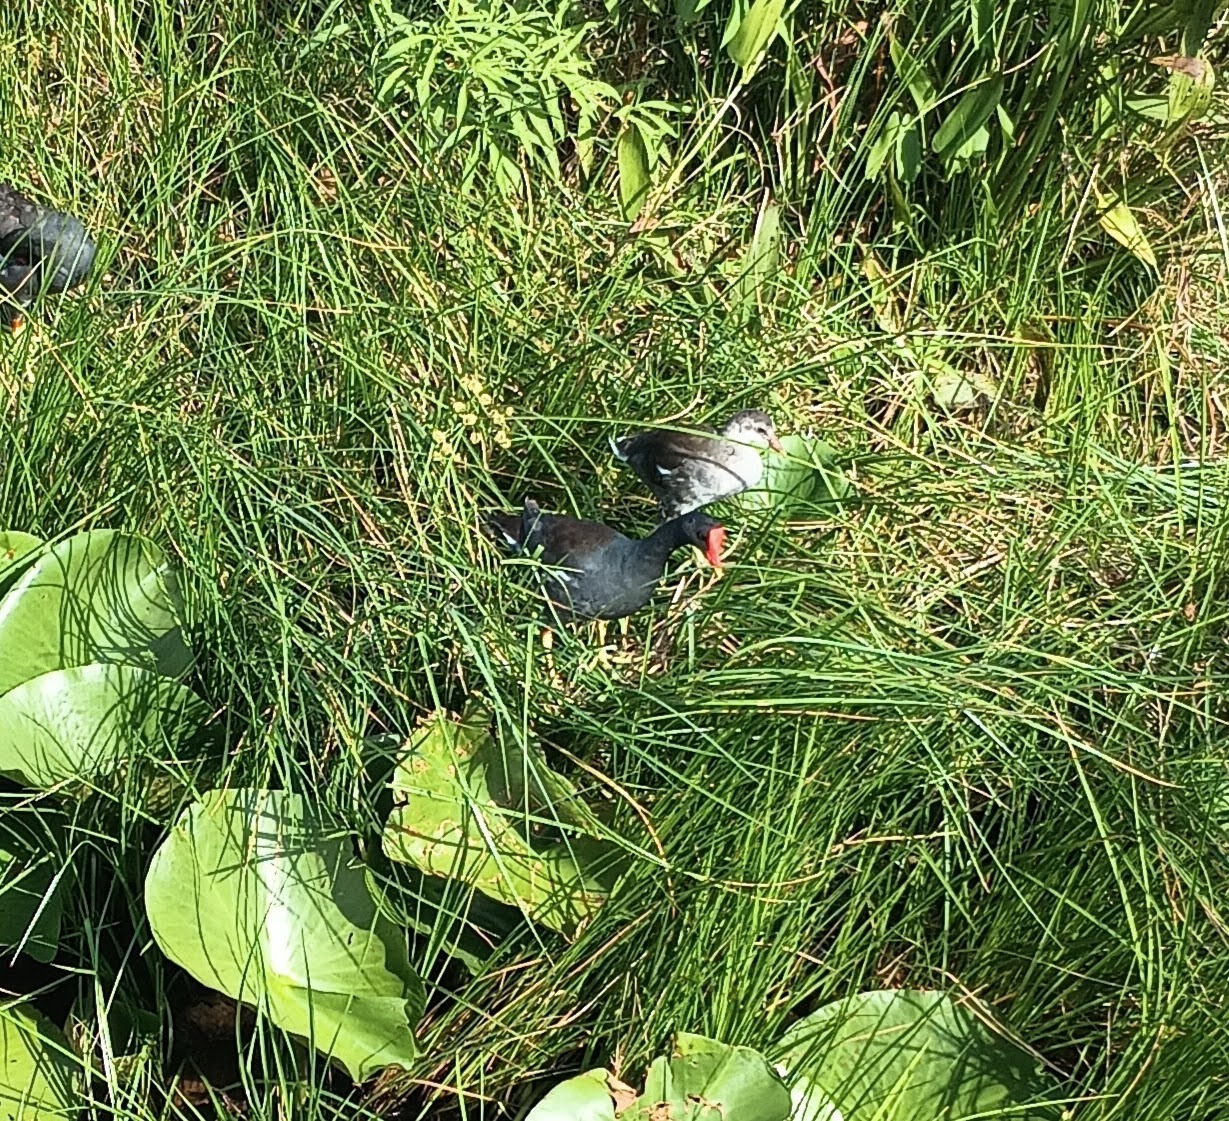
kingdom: Animalia
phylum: Chordata
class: Aves
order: Gruiformes
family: Rallidae
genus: Gallinula
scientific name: Gallinula chloropus
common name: Common moorhen
